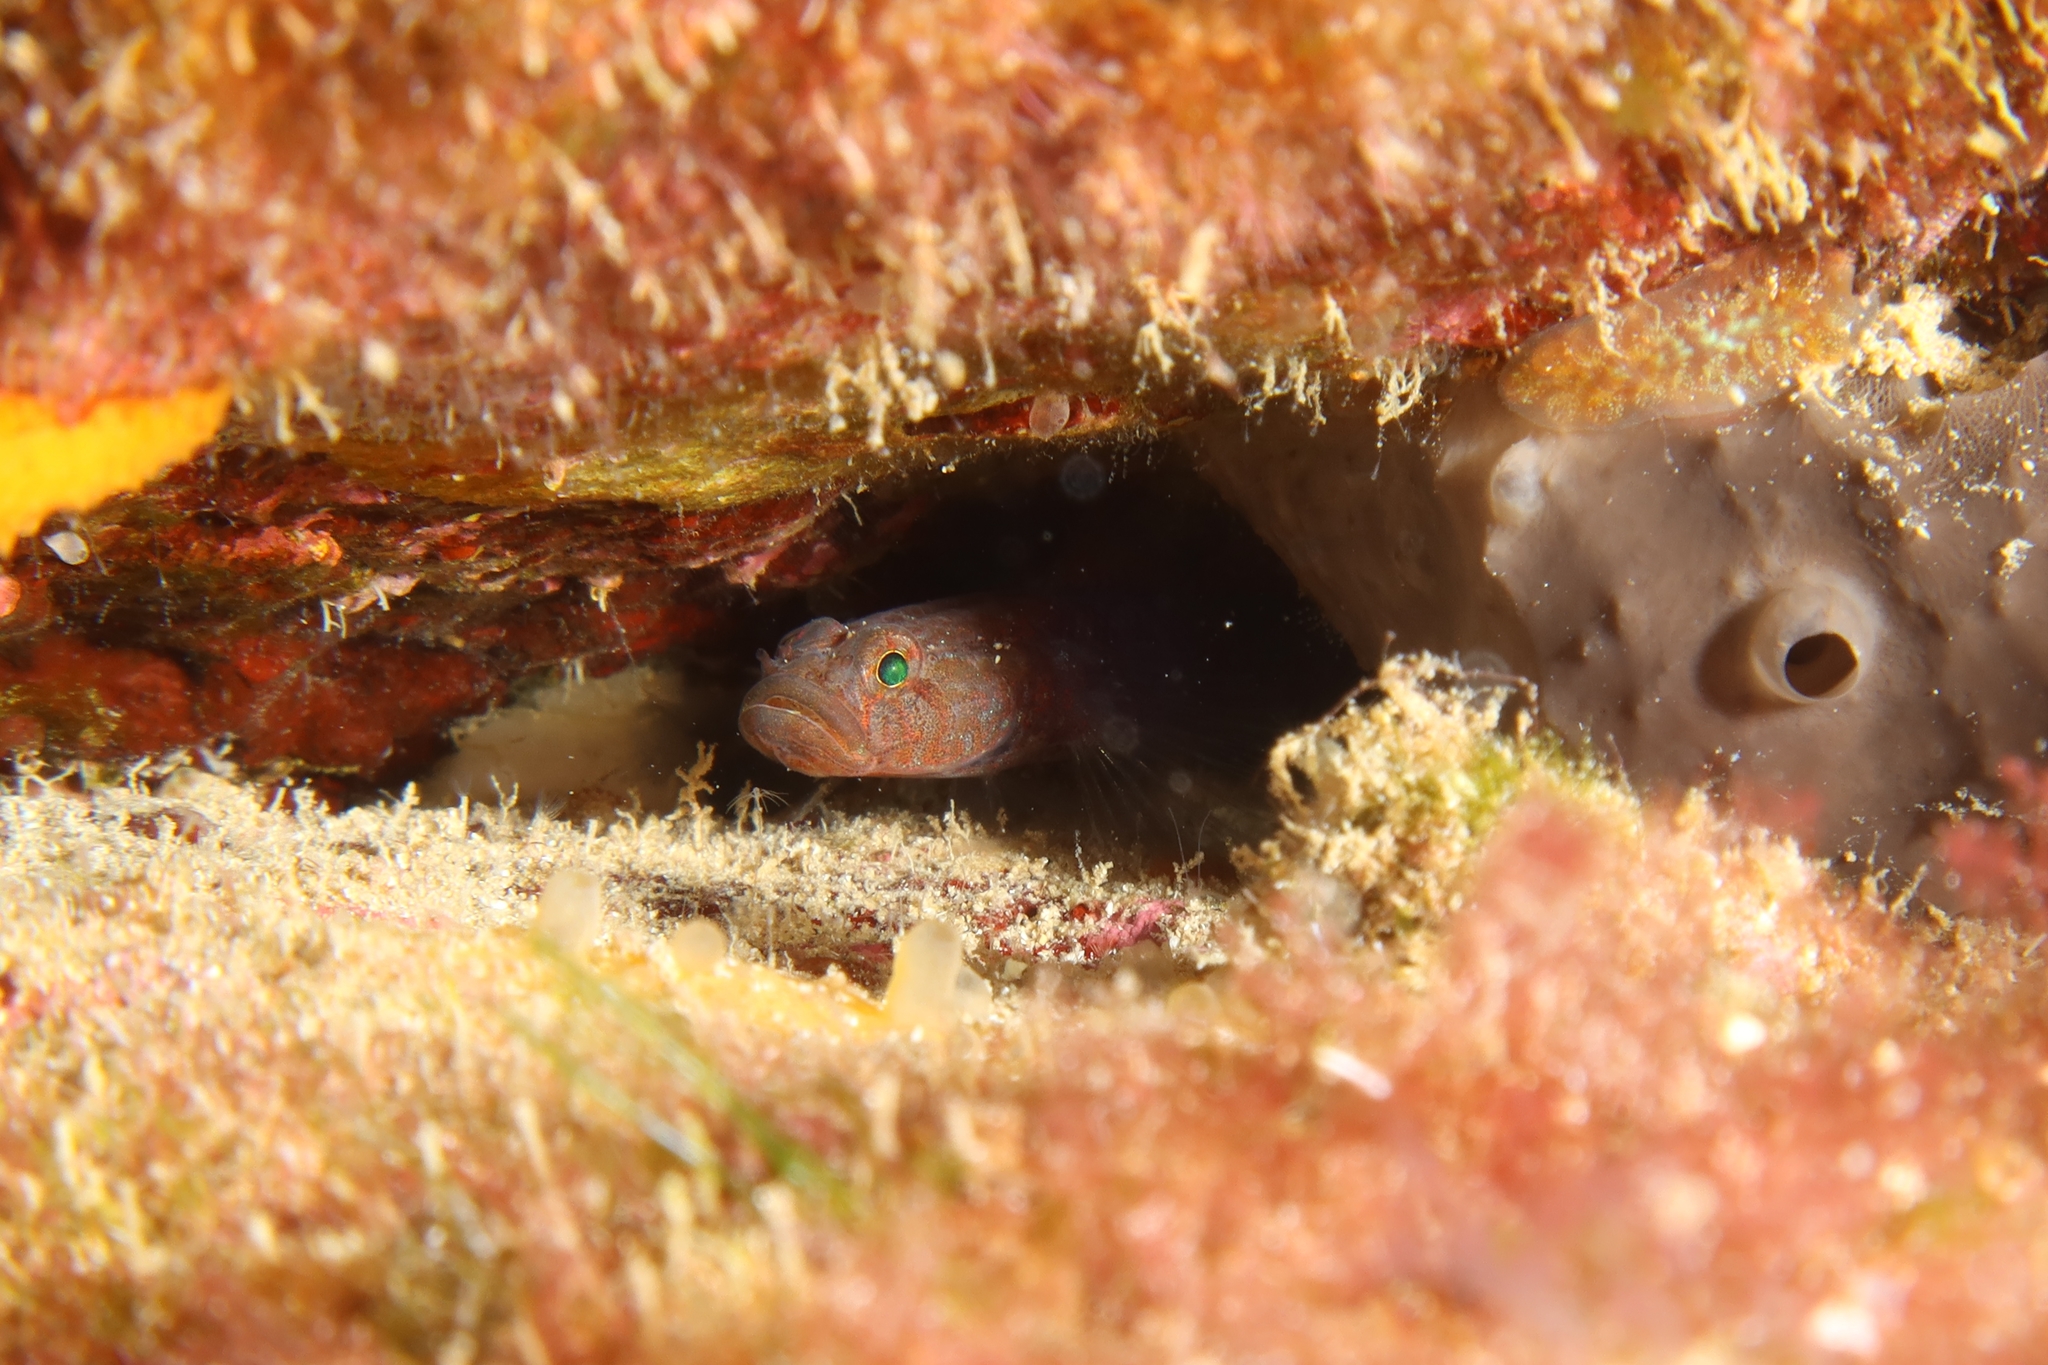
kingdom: Animalia
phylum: Chordata
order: Perciformes
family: Gobiidae
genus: Chromogobius
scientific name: Chromogobius britoi
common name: Brito's goby
